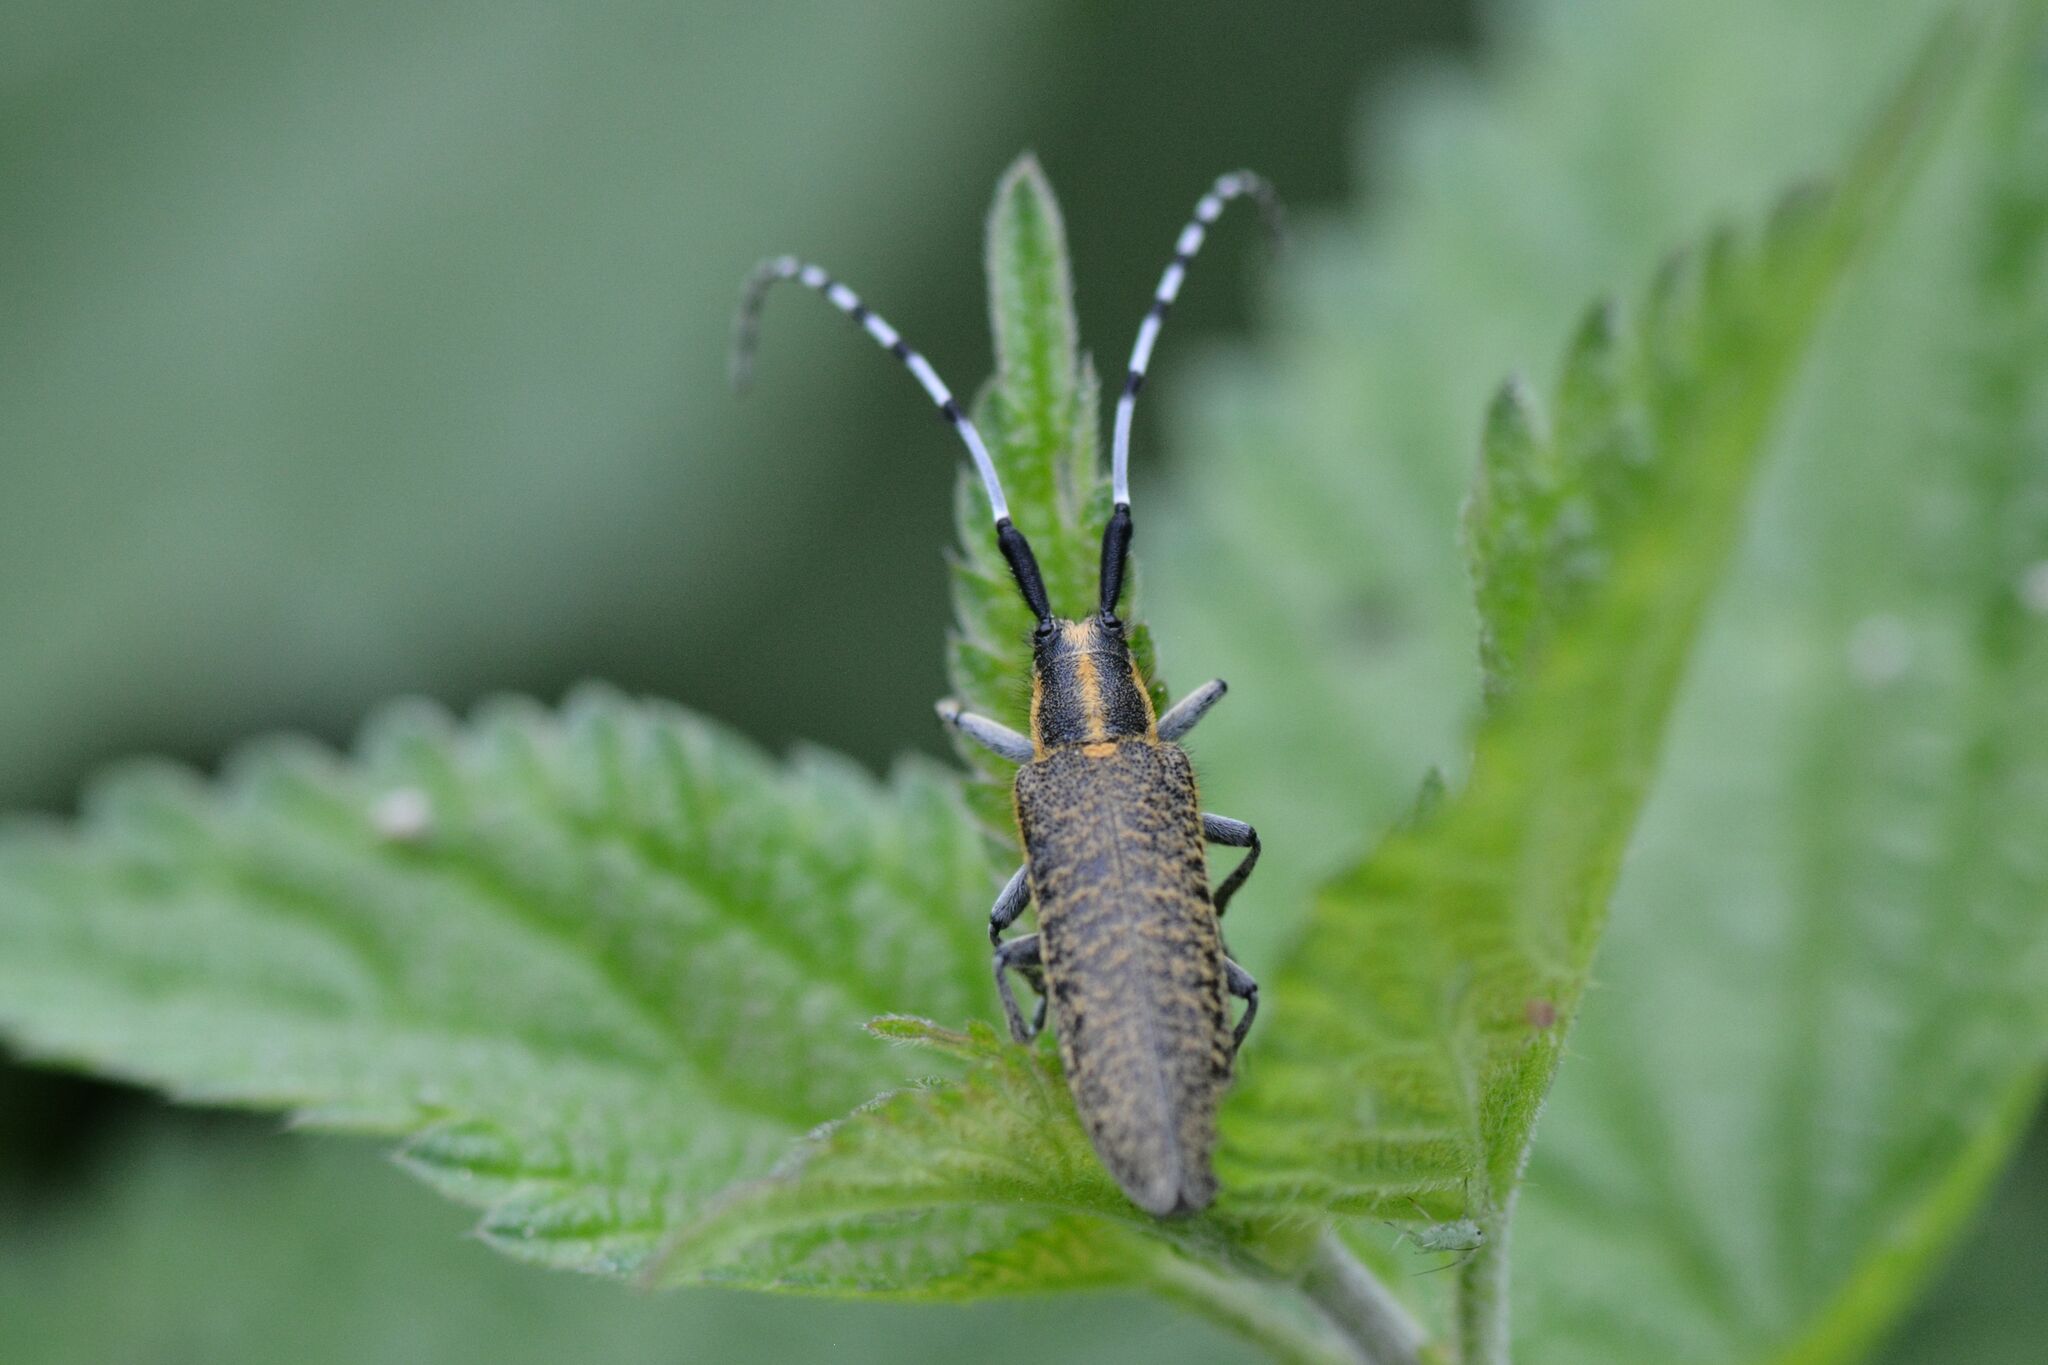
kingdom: Animalia
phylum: Arthropoda
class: Insecta
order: Coleoptera
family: Cerambycidae
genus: Agapanthia
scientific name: Agapanthia villosoviridescens
